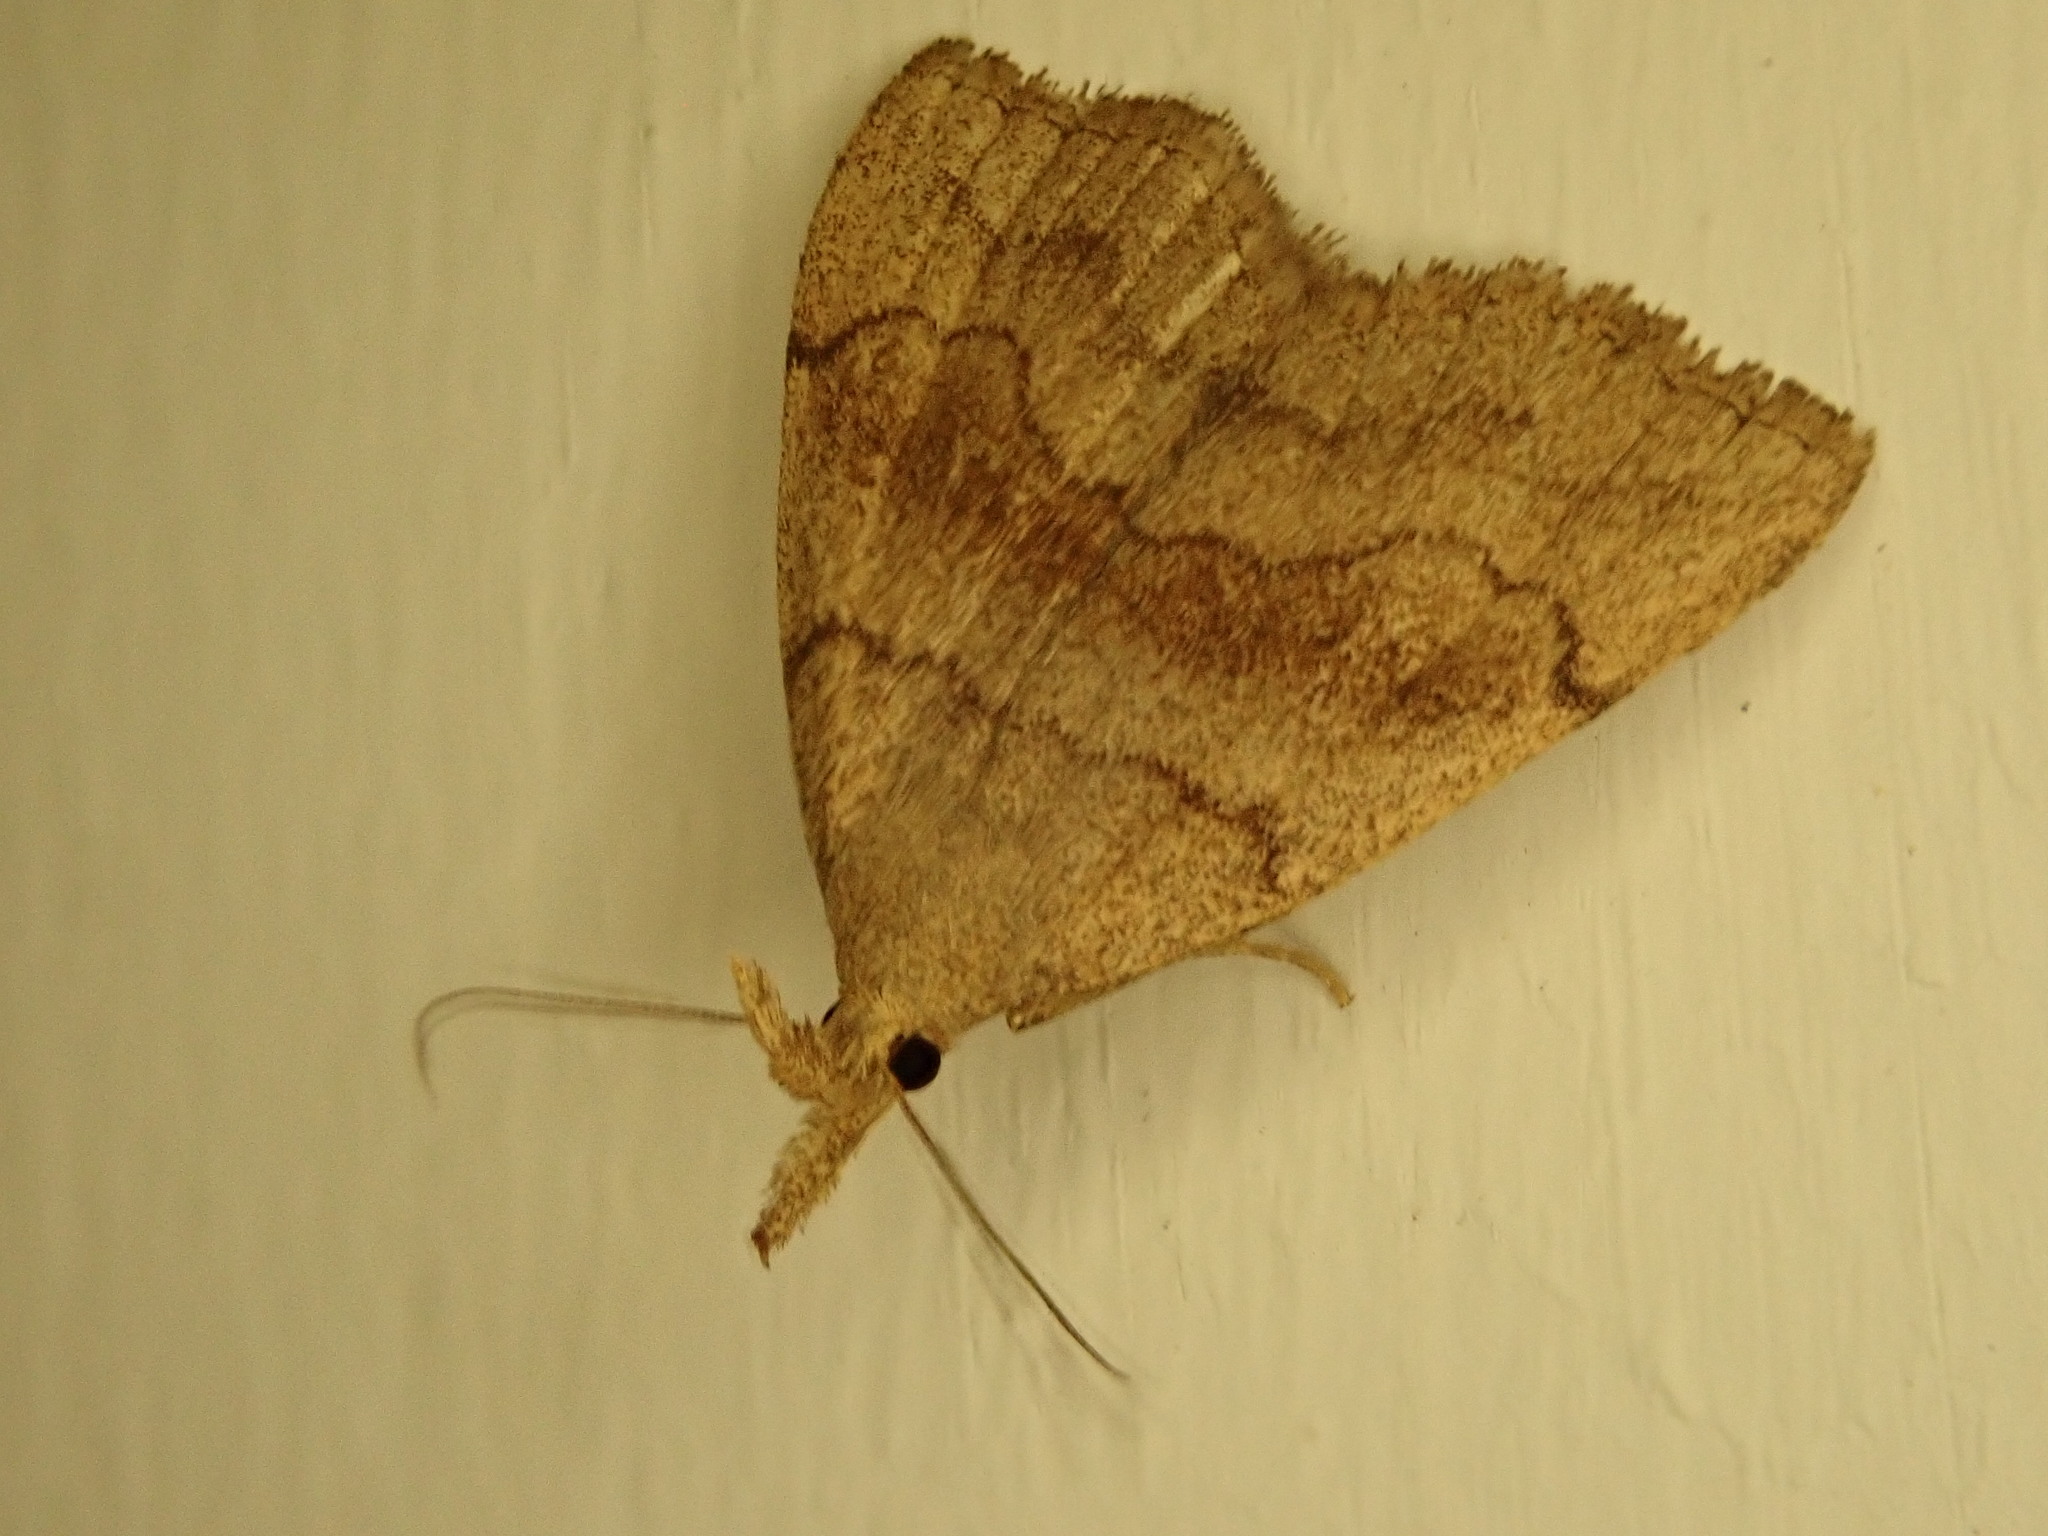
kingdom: Animalia
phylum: Arthropoda
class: Insecta
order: Lepidoptera
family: Erebidae
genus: Phalaenostola
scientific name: Phalaenostola metonalis
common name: Pale phalaenostola moth
